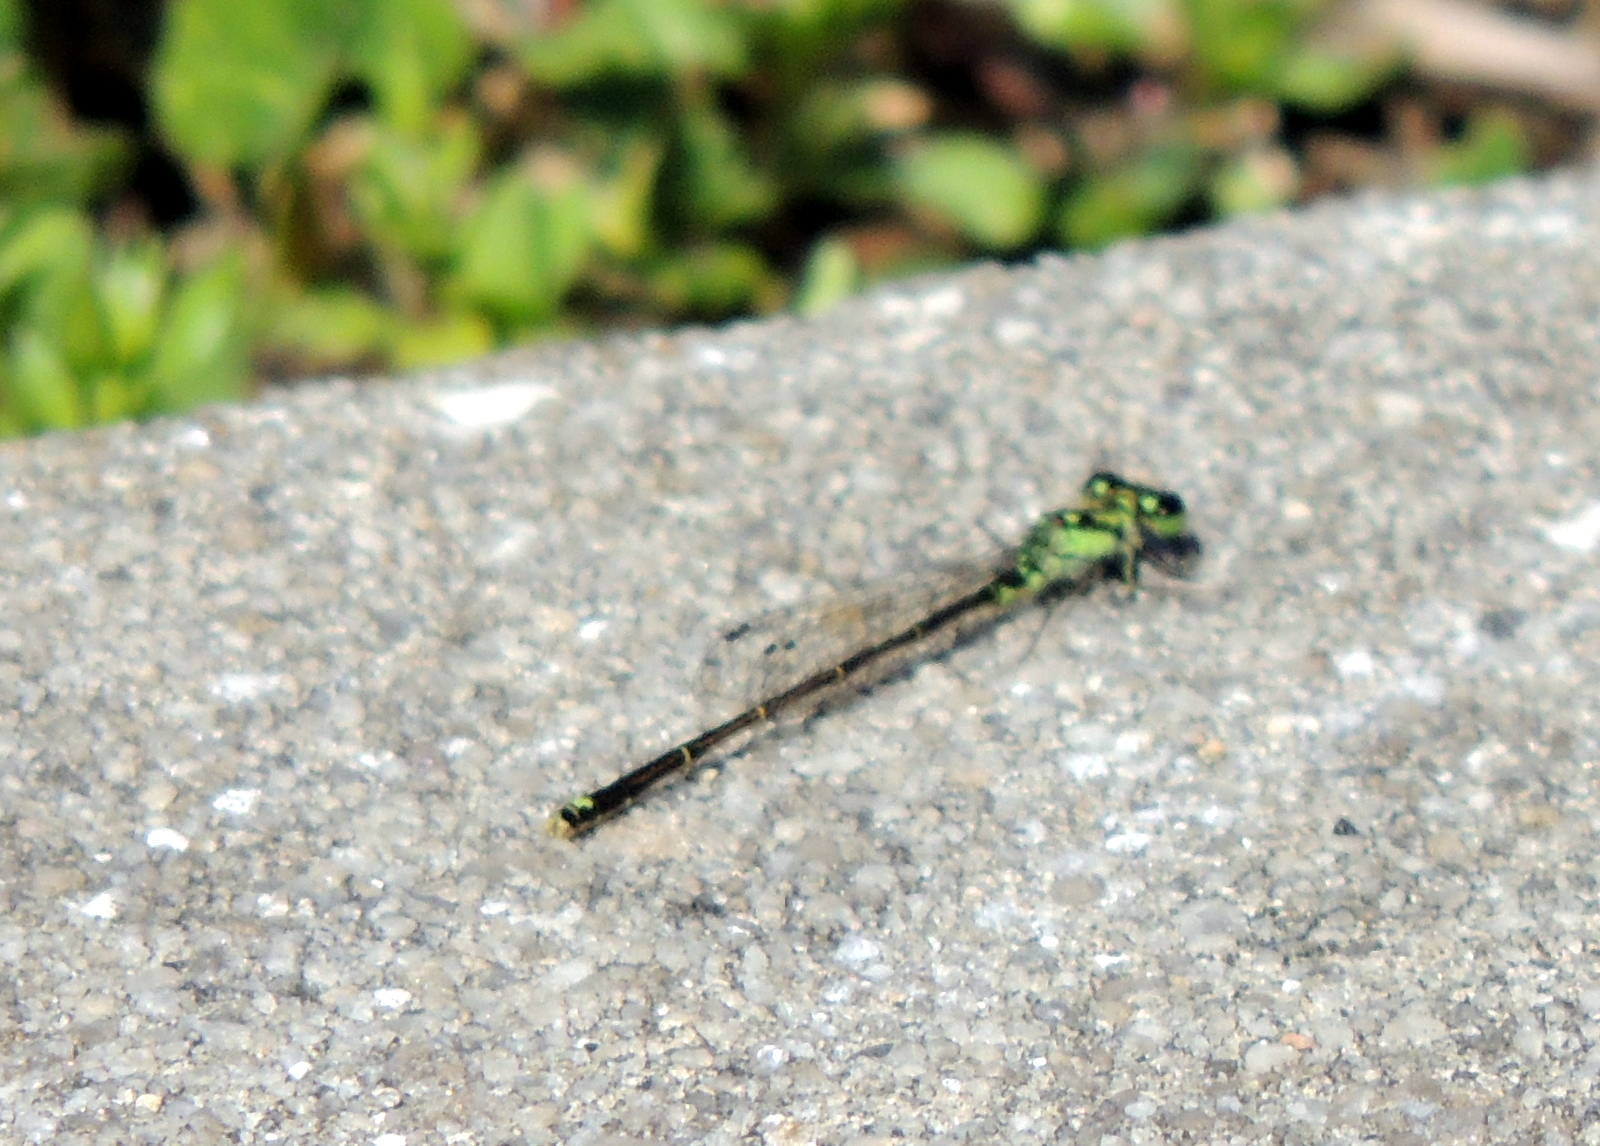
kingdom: Animalia
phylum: Arthropoda
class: Insecta
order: Odonata
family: Coenagrionidae
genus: Ischnura
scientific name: Ischnura posita
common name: Fragile forktail
